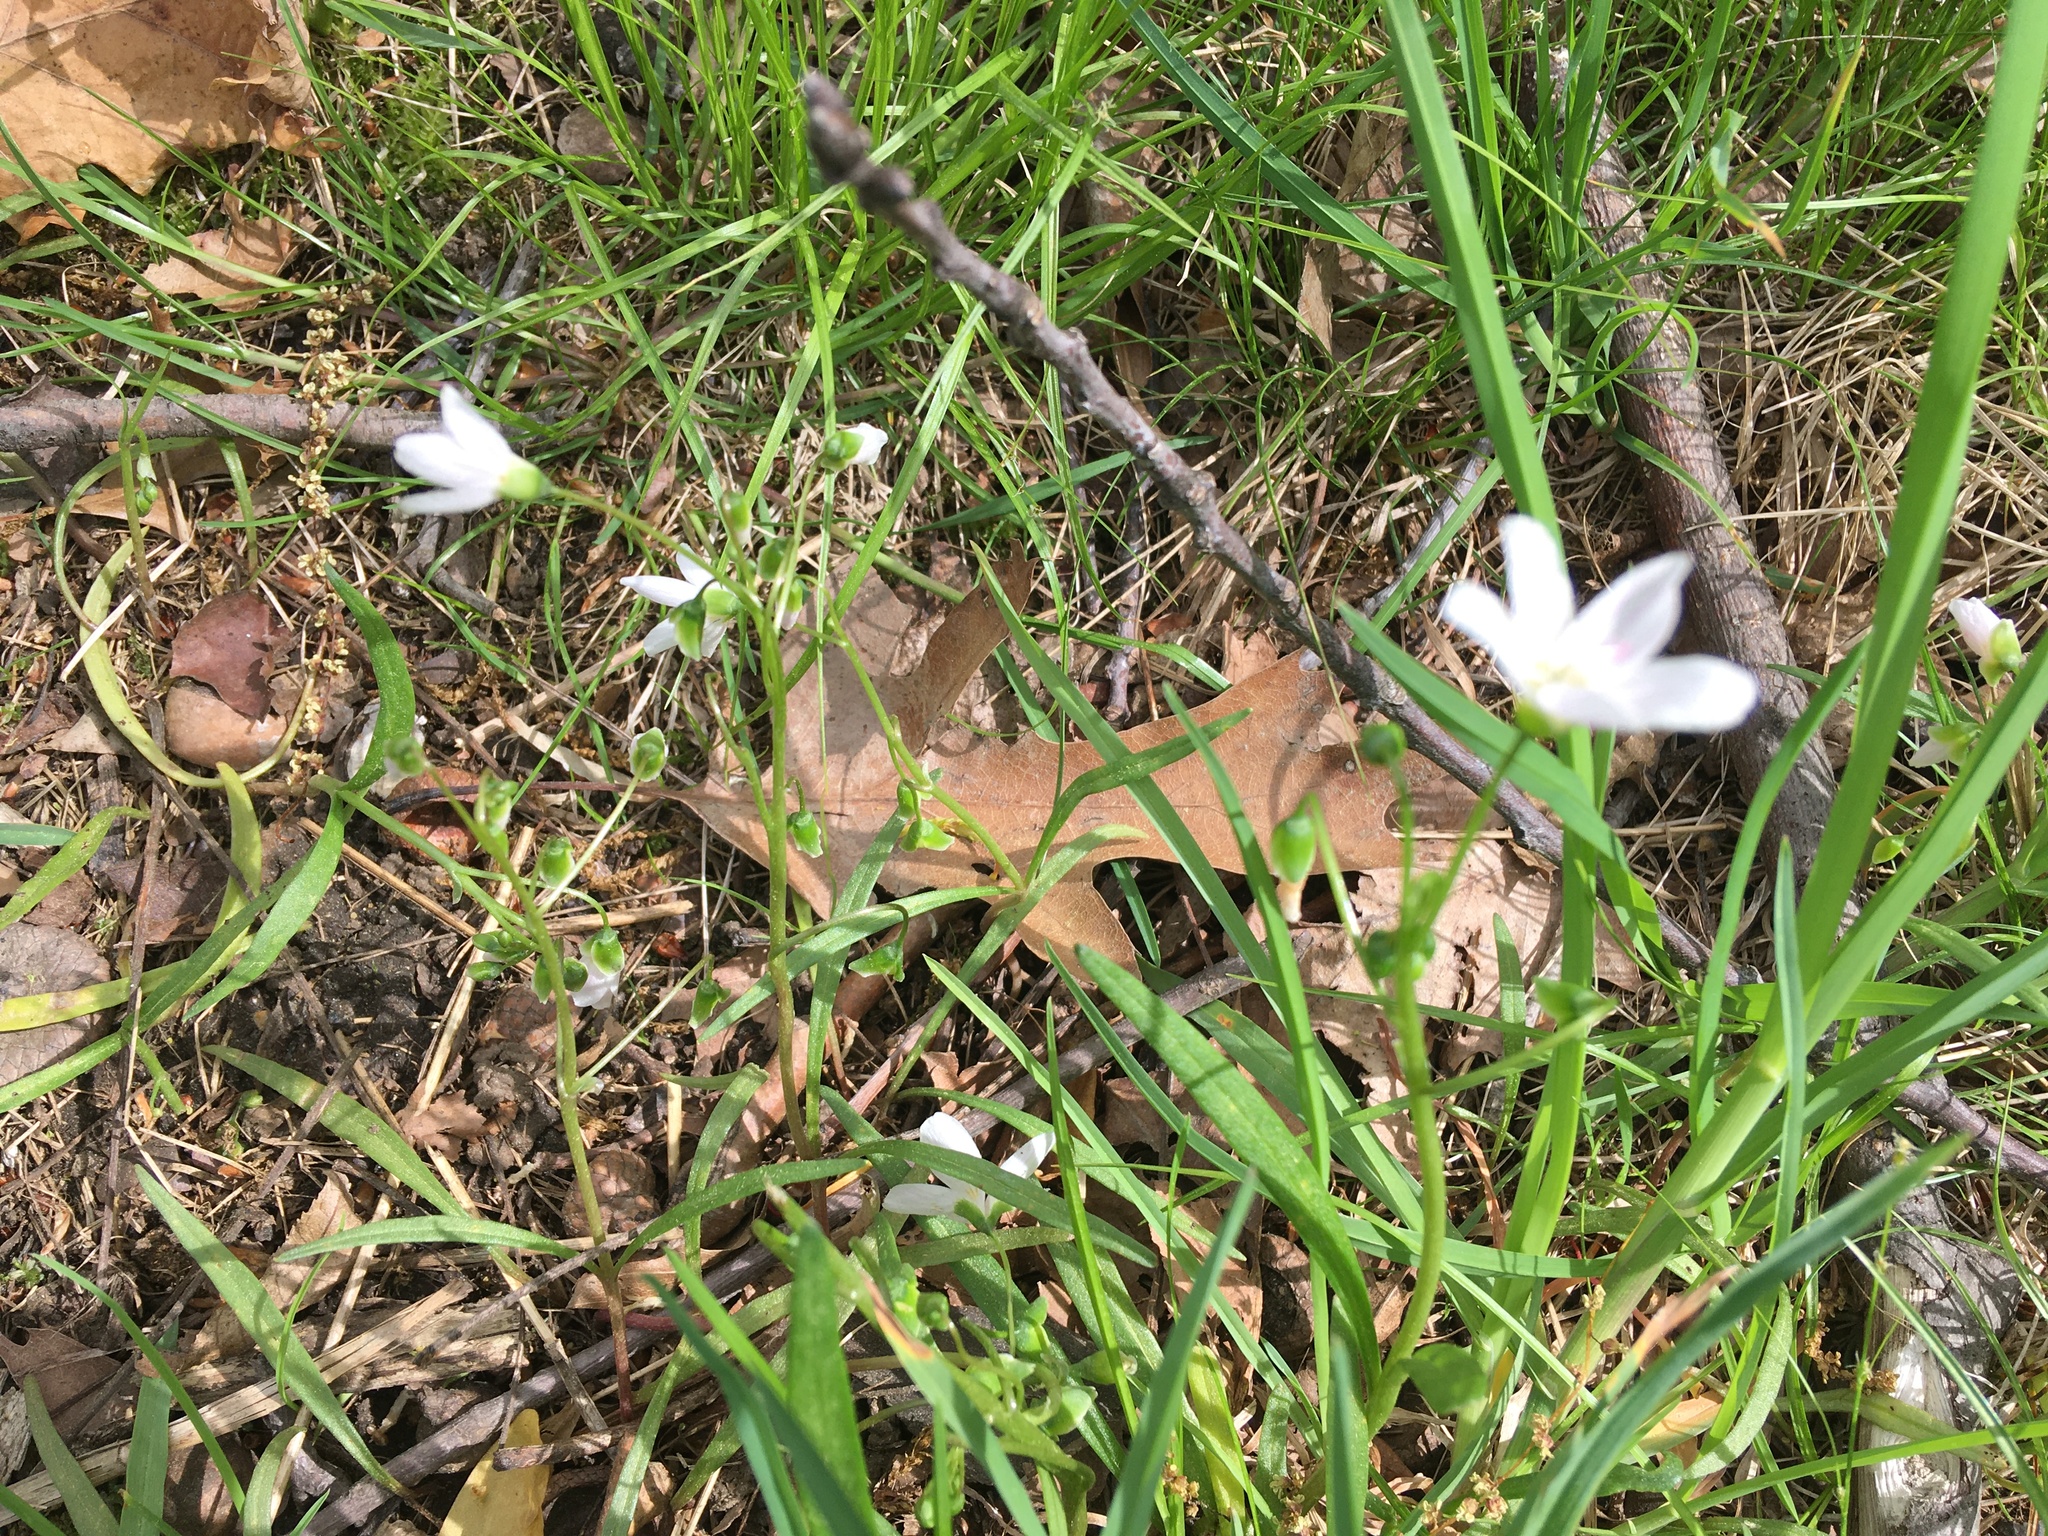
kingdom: Plantae
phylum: Tracheophyta
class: Magnoliopsida
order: Caryophyllales
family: Montiaceae
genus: Claytonia
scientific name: Claytonia virginica
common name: Virginia springbeauty
